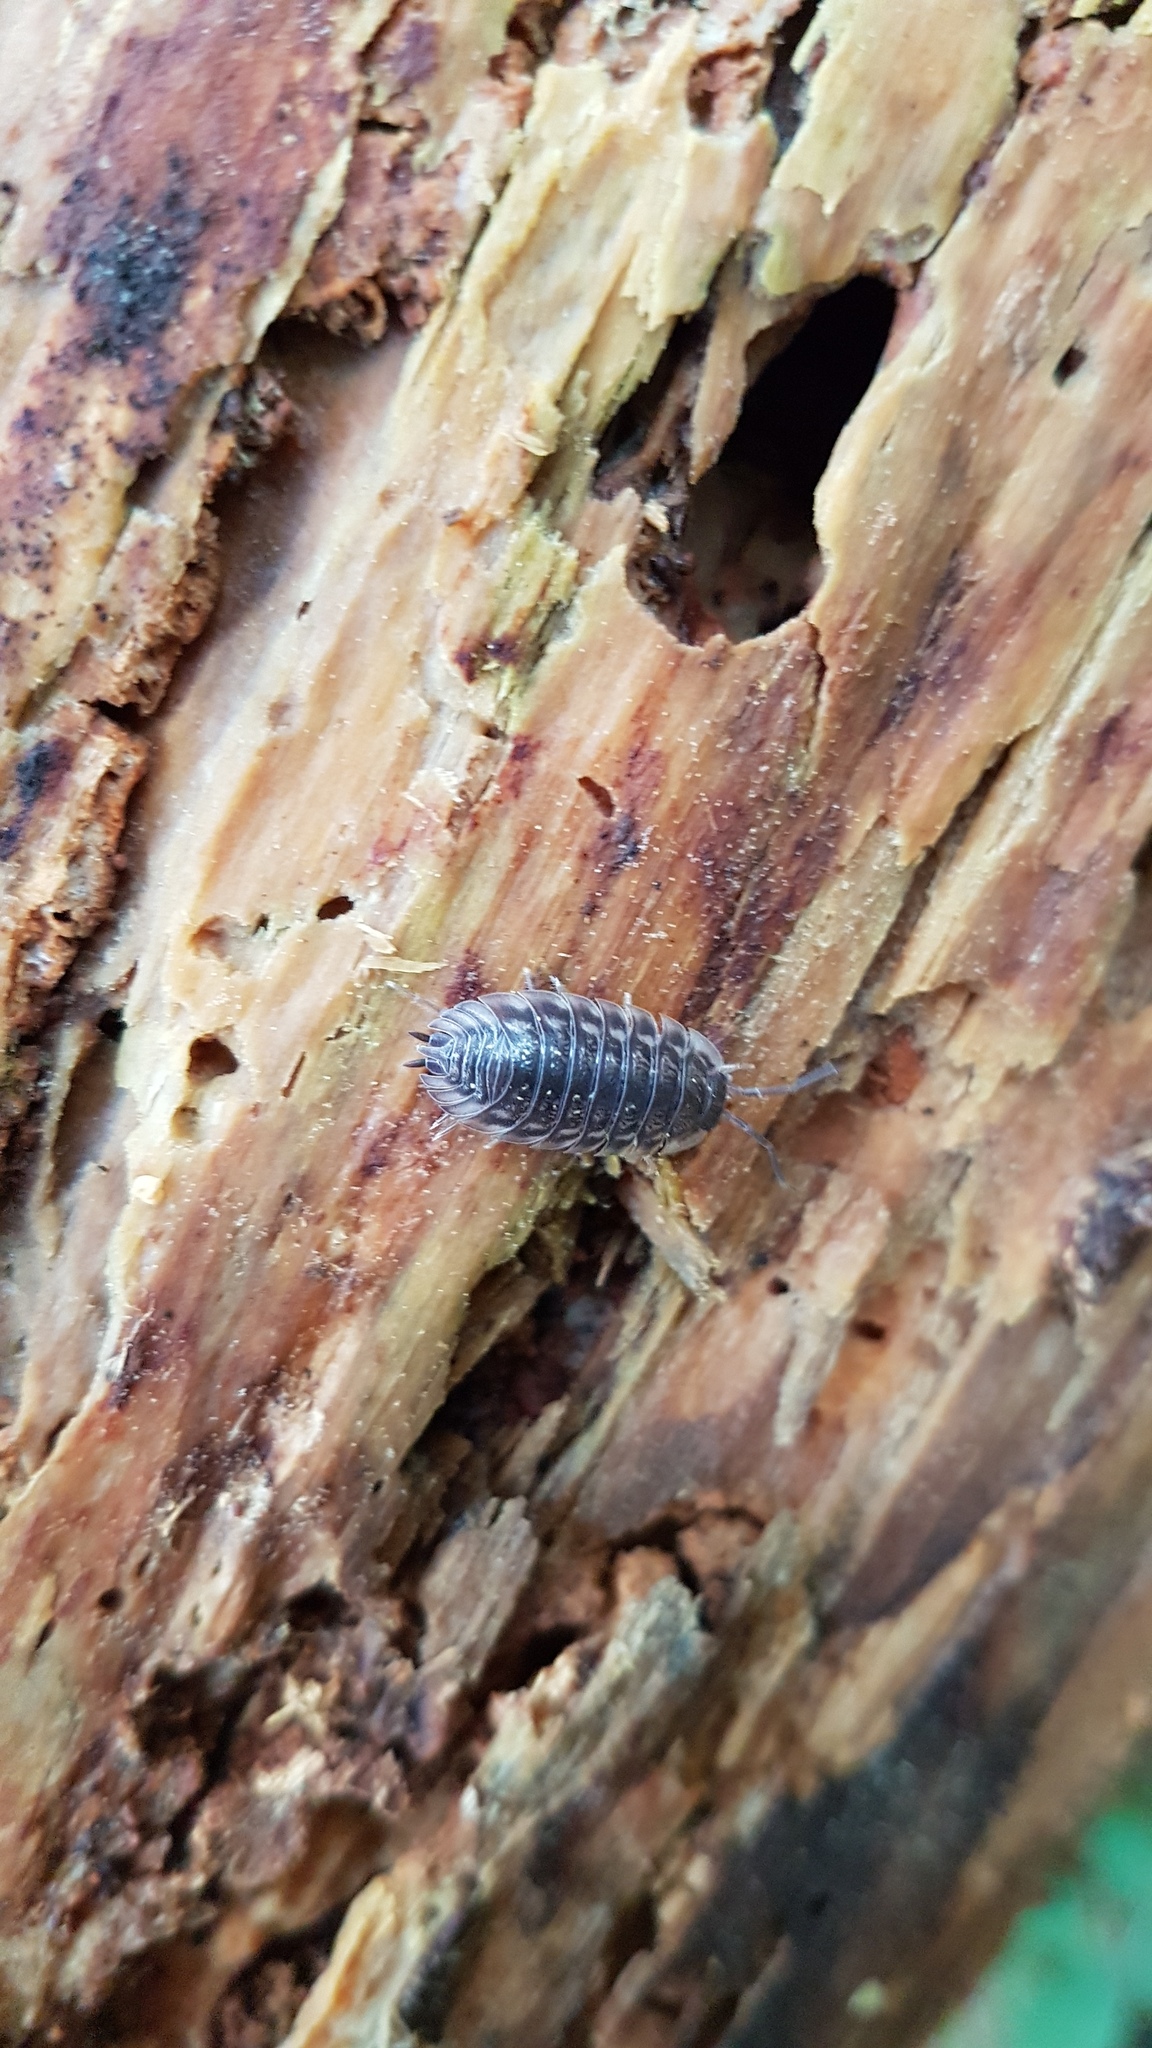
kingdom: Animalia
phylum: Arthropoda
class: Malacostraca
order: Isopoda
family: Oniscidae
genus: Oniscus
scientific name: Oniscus asellus
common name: Common shiny woodlouse
